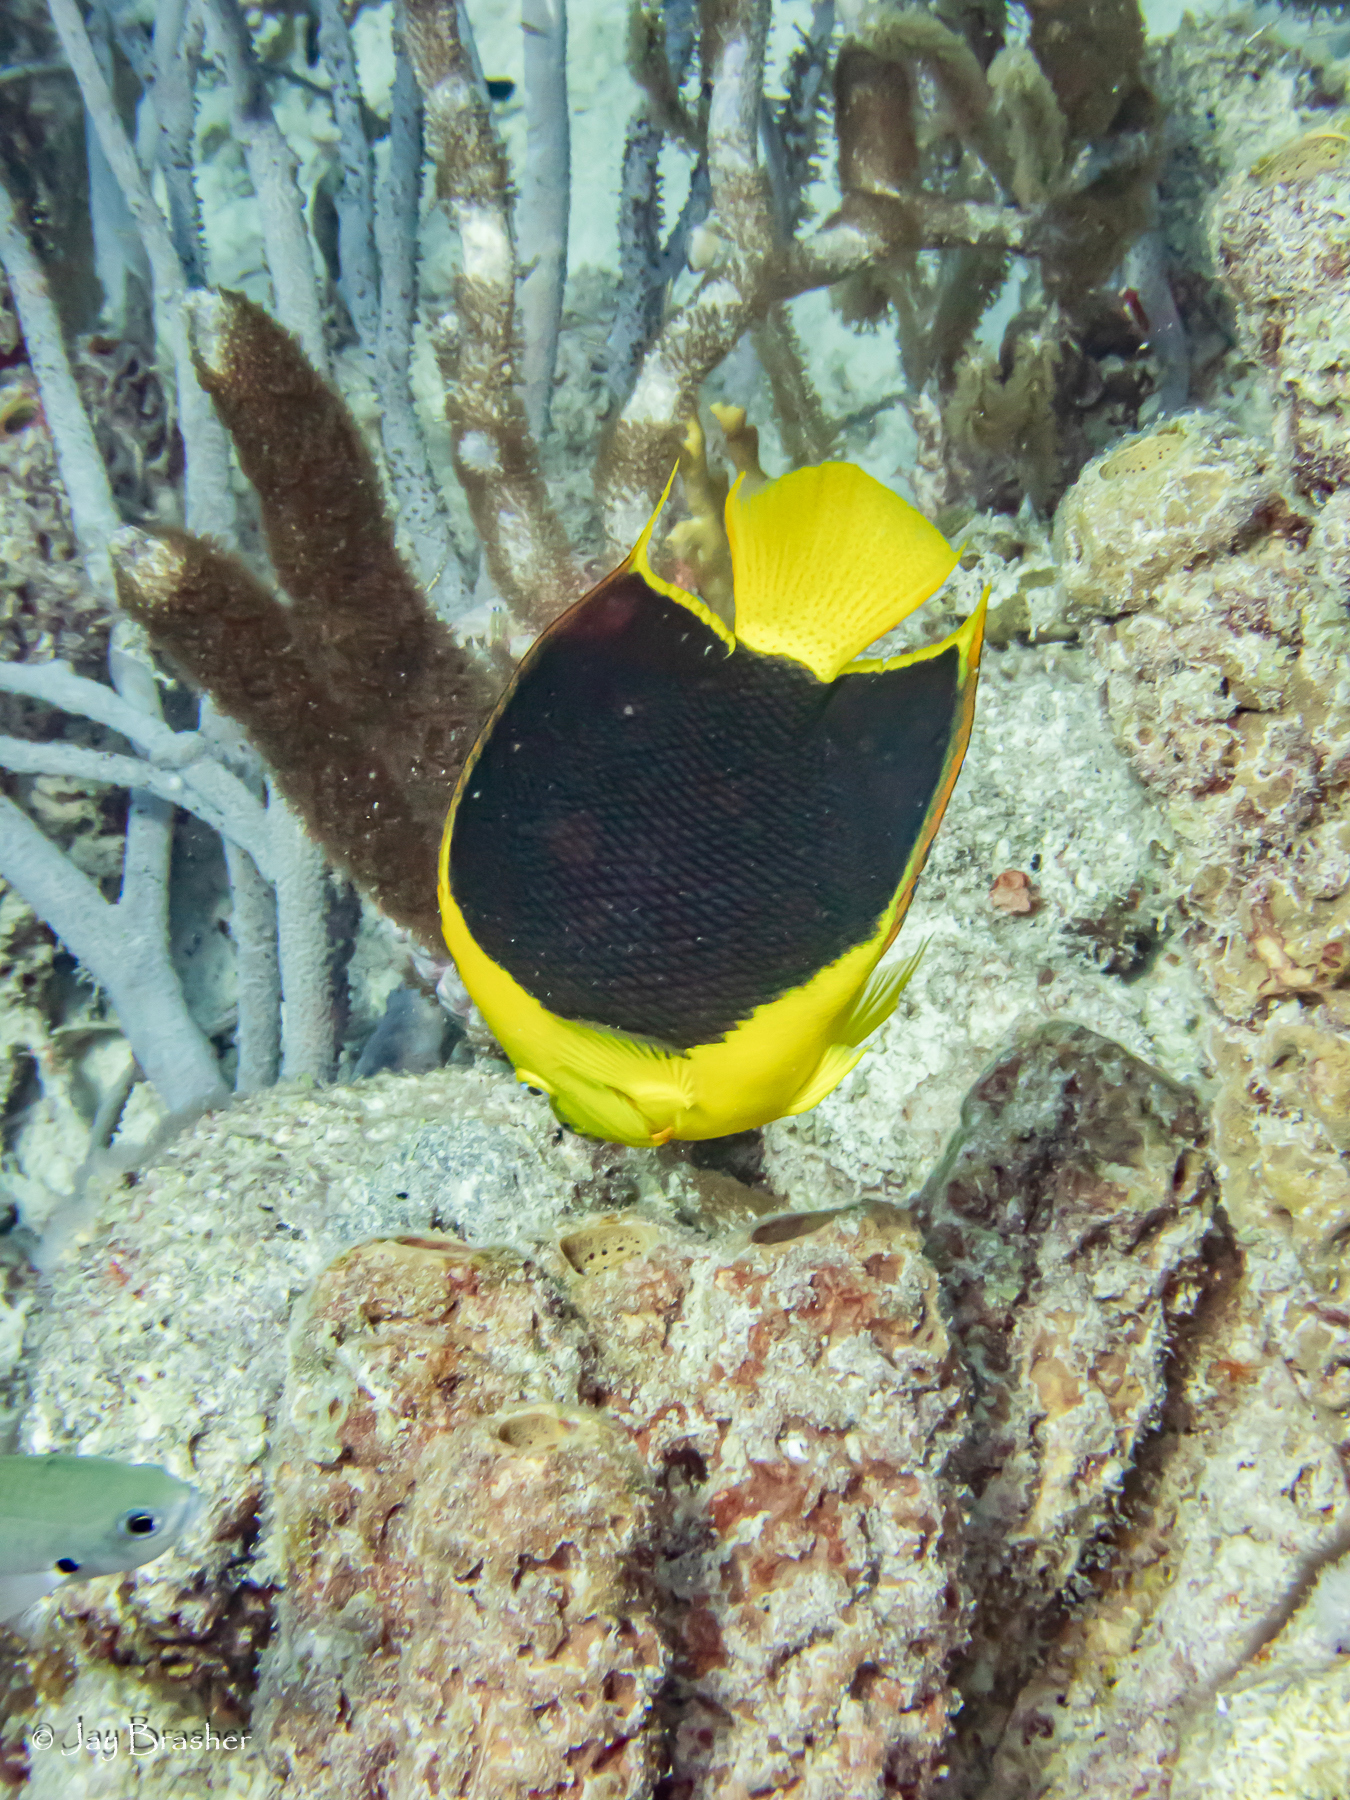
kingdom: Animalia
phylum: Porifera
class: Demospongiae
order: Verongiida
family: Aplysinidae
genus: Aplysina
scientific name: Aplysina archeri
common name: Stove-pipe sponge
